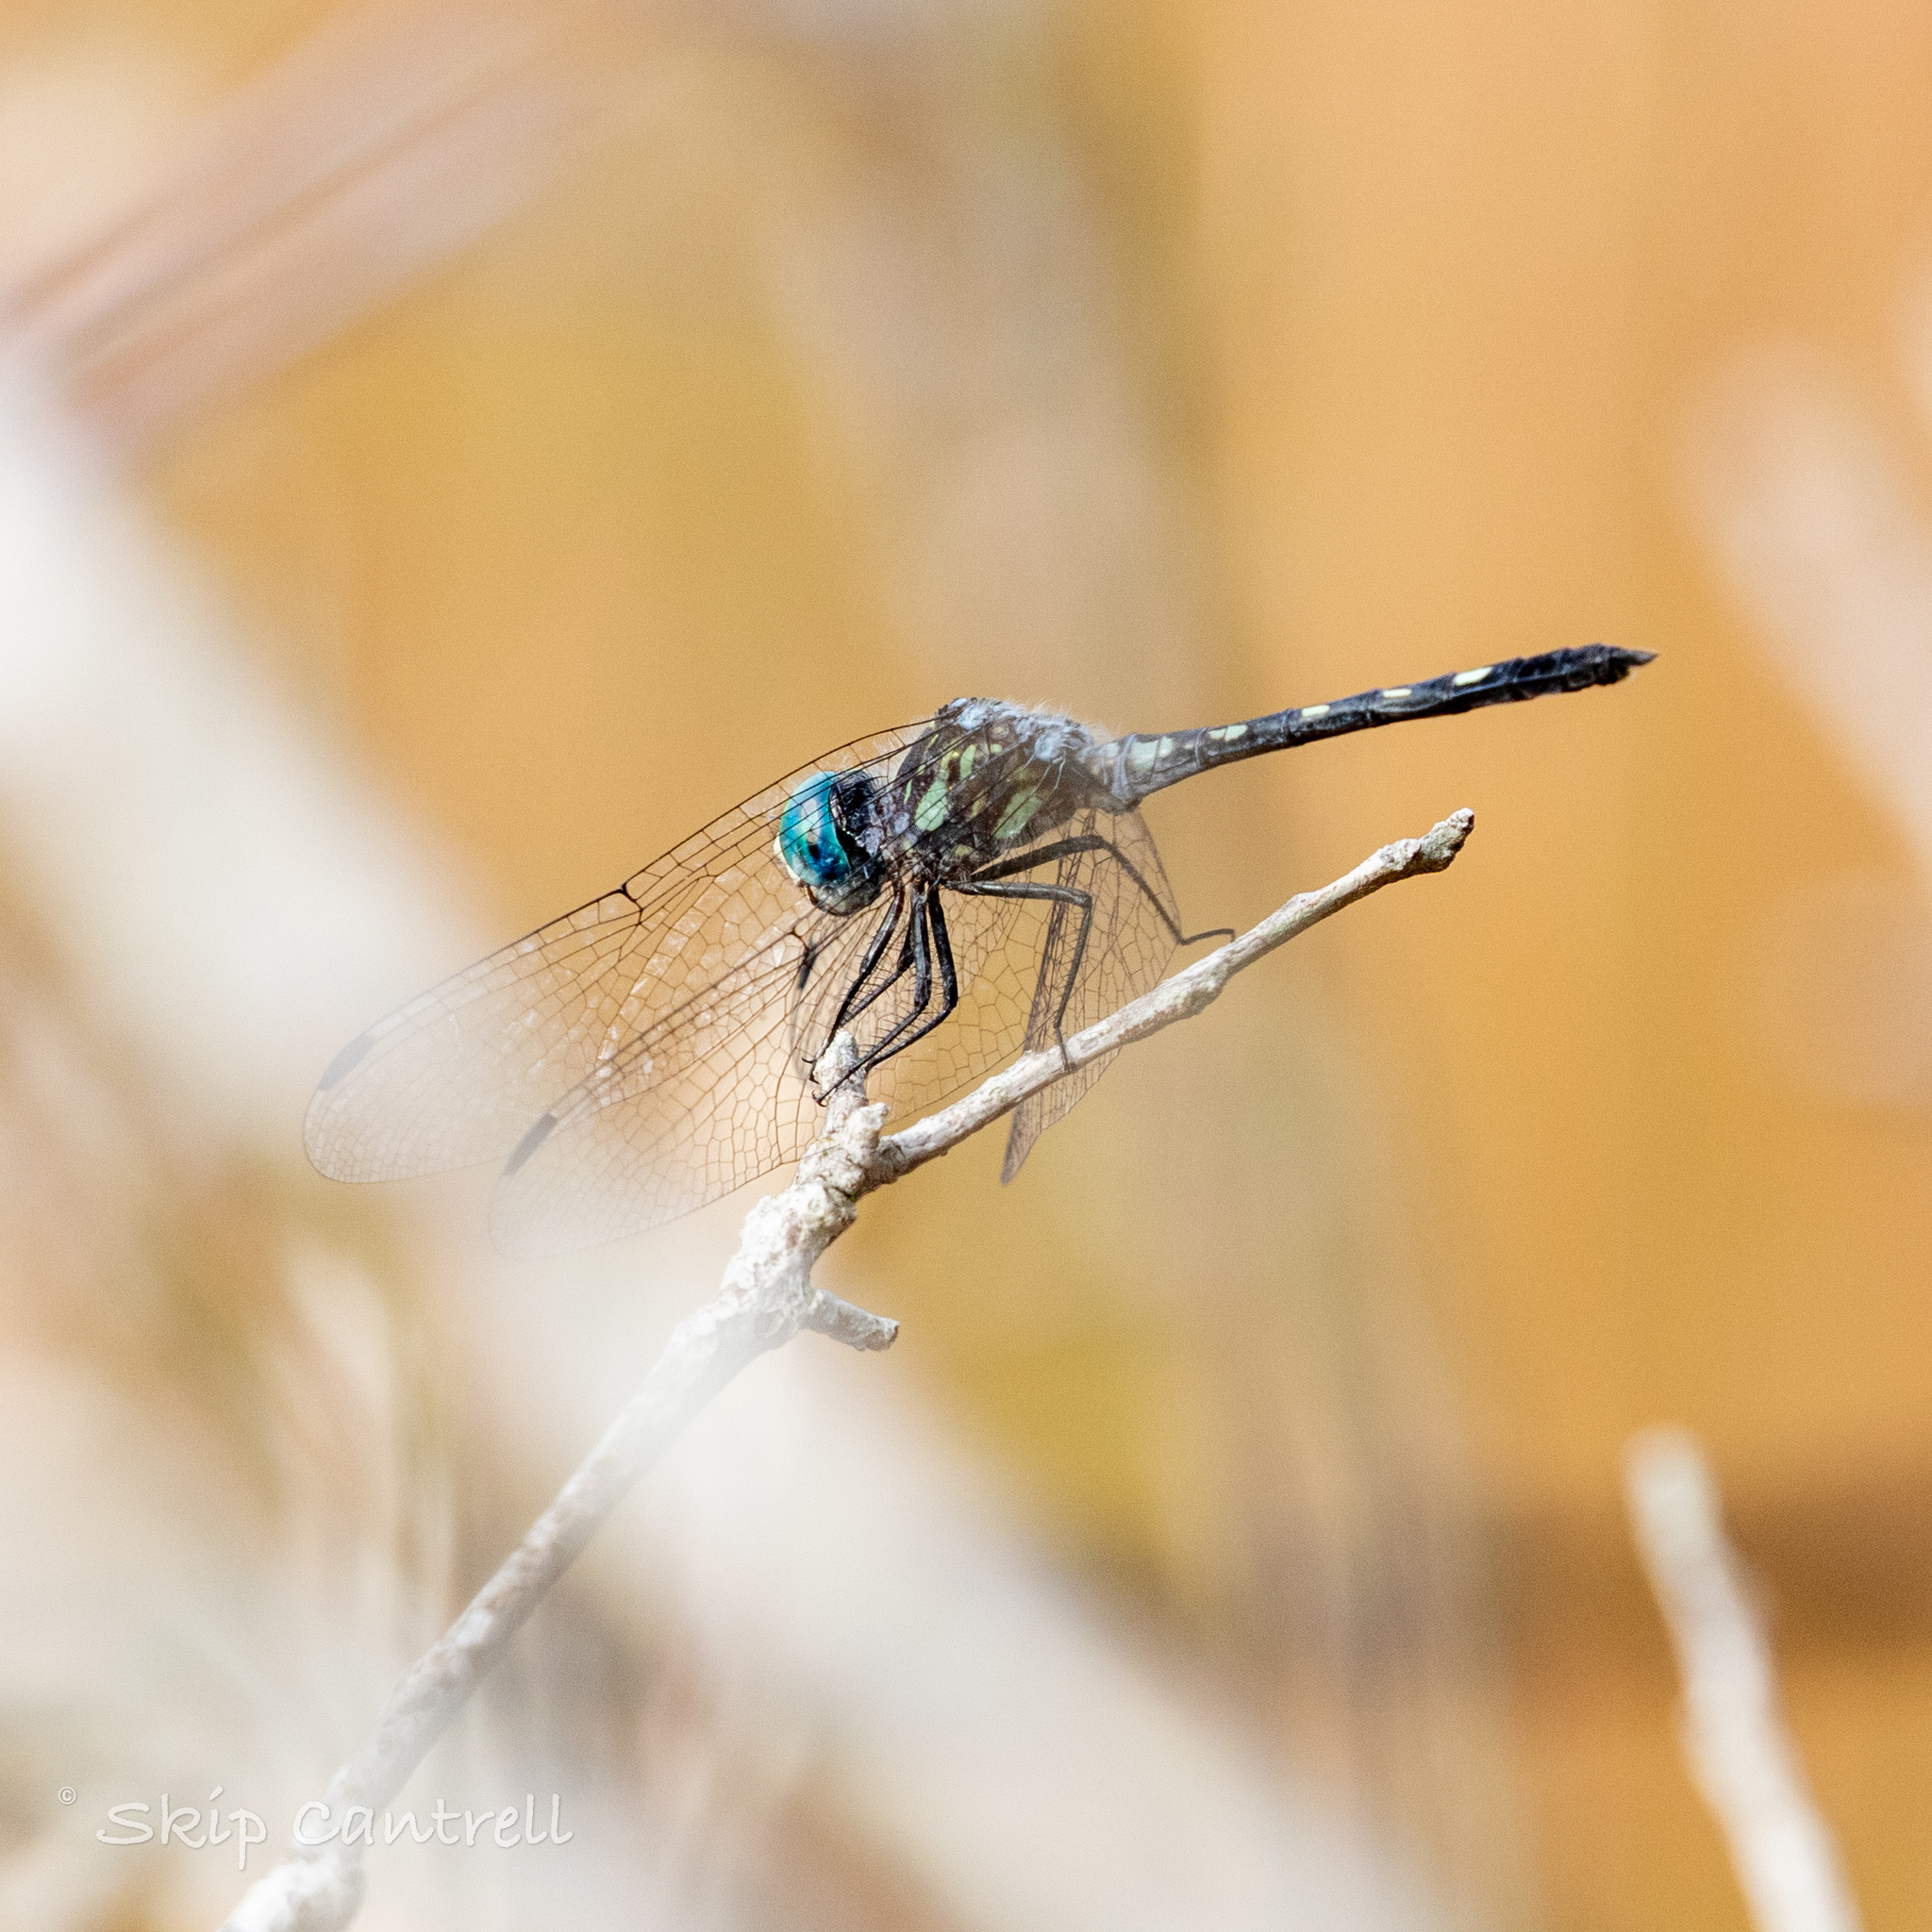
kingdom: Animalia
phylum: Arthropoda
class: Insecta
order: Odonata
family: Libellulidae
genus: Micrathyria
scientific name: Micrathyria hagenii
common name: Thornbush dasher
